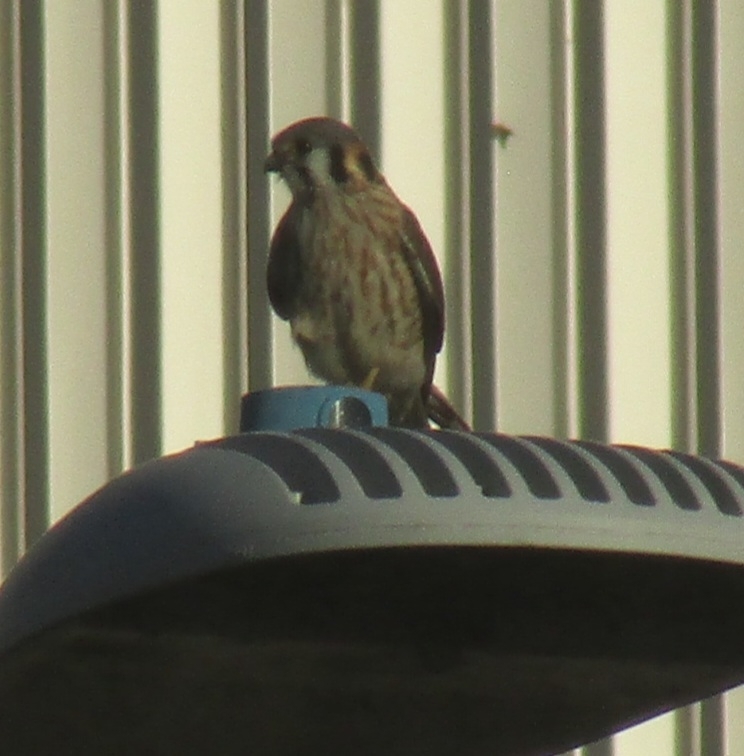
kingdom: Animalia
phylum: Chordata
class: Aves
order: Falconiformes
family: Falconidae
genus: Falco
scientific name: Falco sparverius
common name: American kestrel
